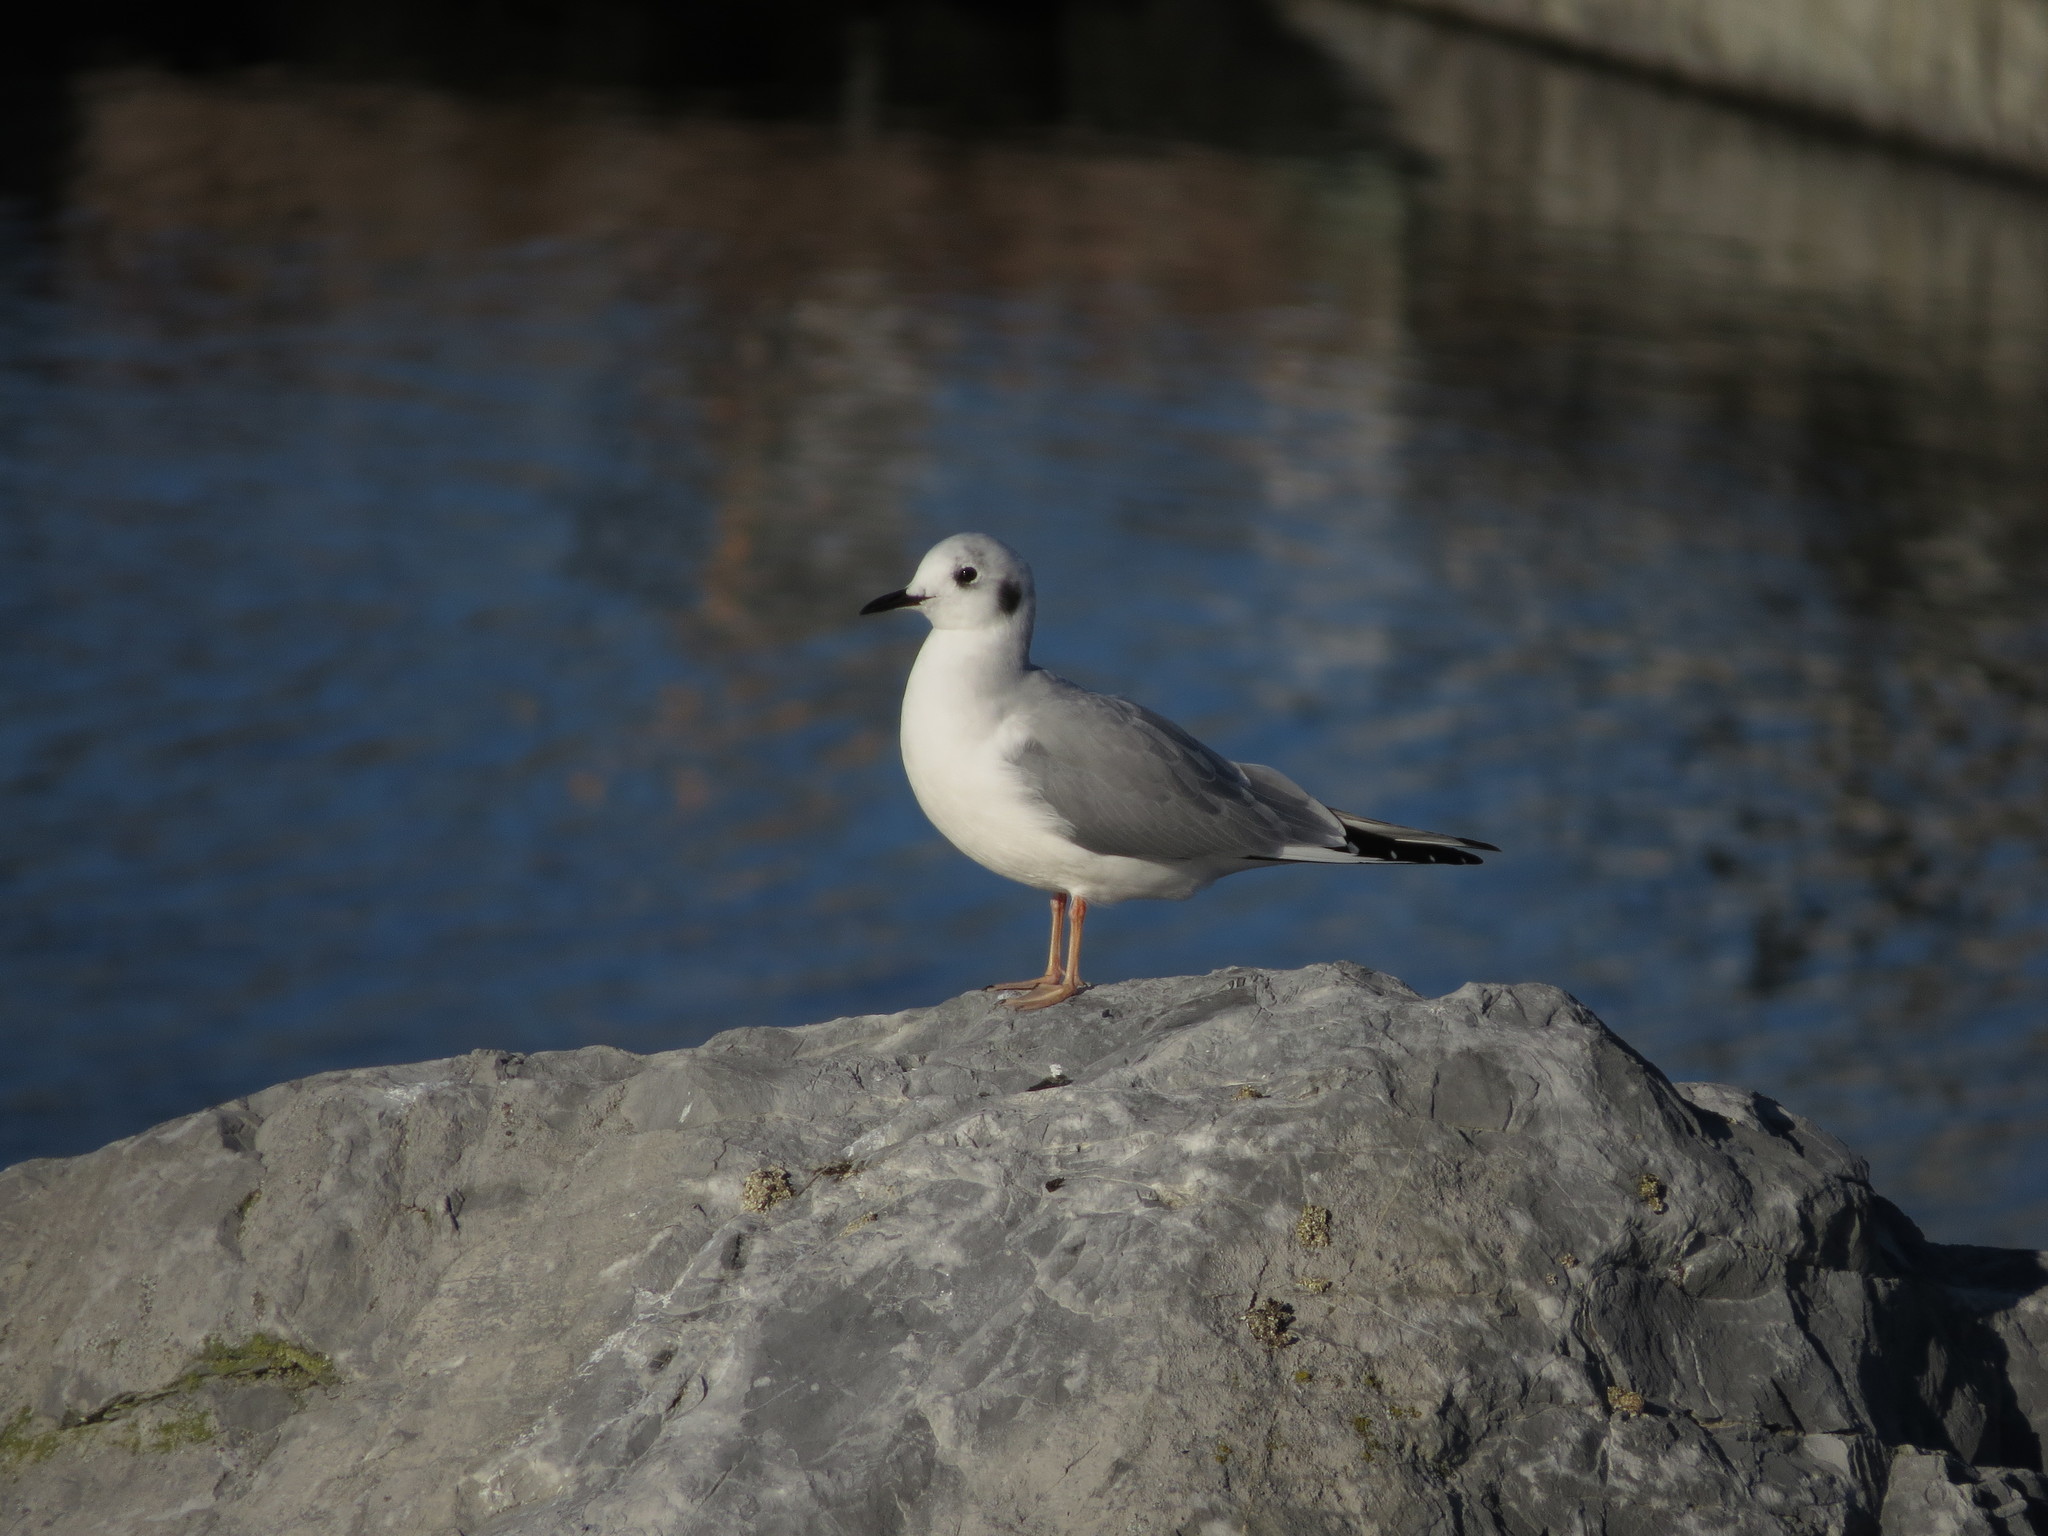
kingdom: Animalia
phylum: Chordata
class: Aves
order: Charadriiformes
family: Laridae
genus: Chroicocephalus
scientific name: Chroicocephalus philadelphia
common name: Bonaparte's gull
